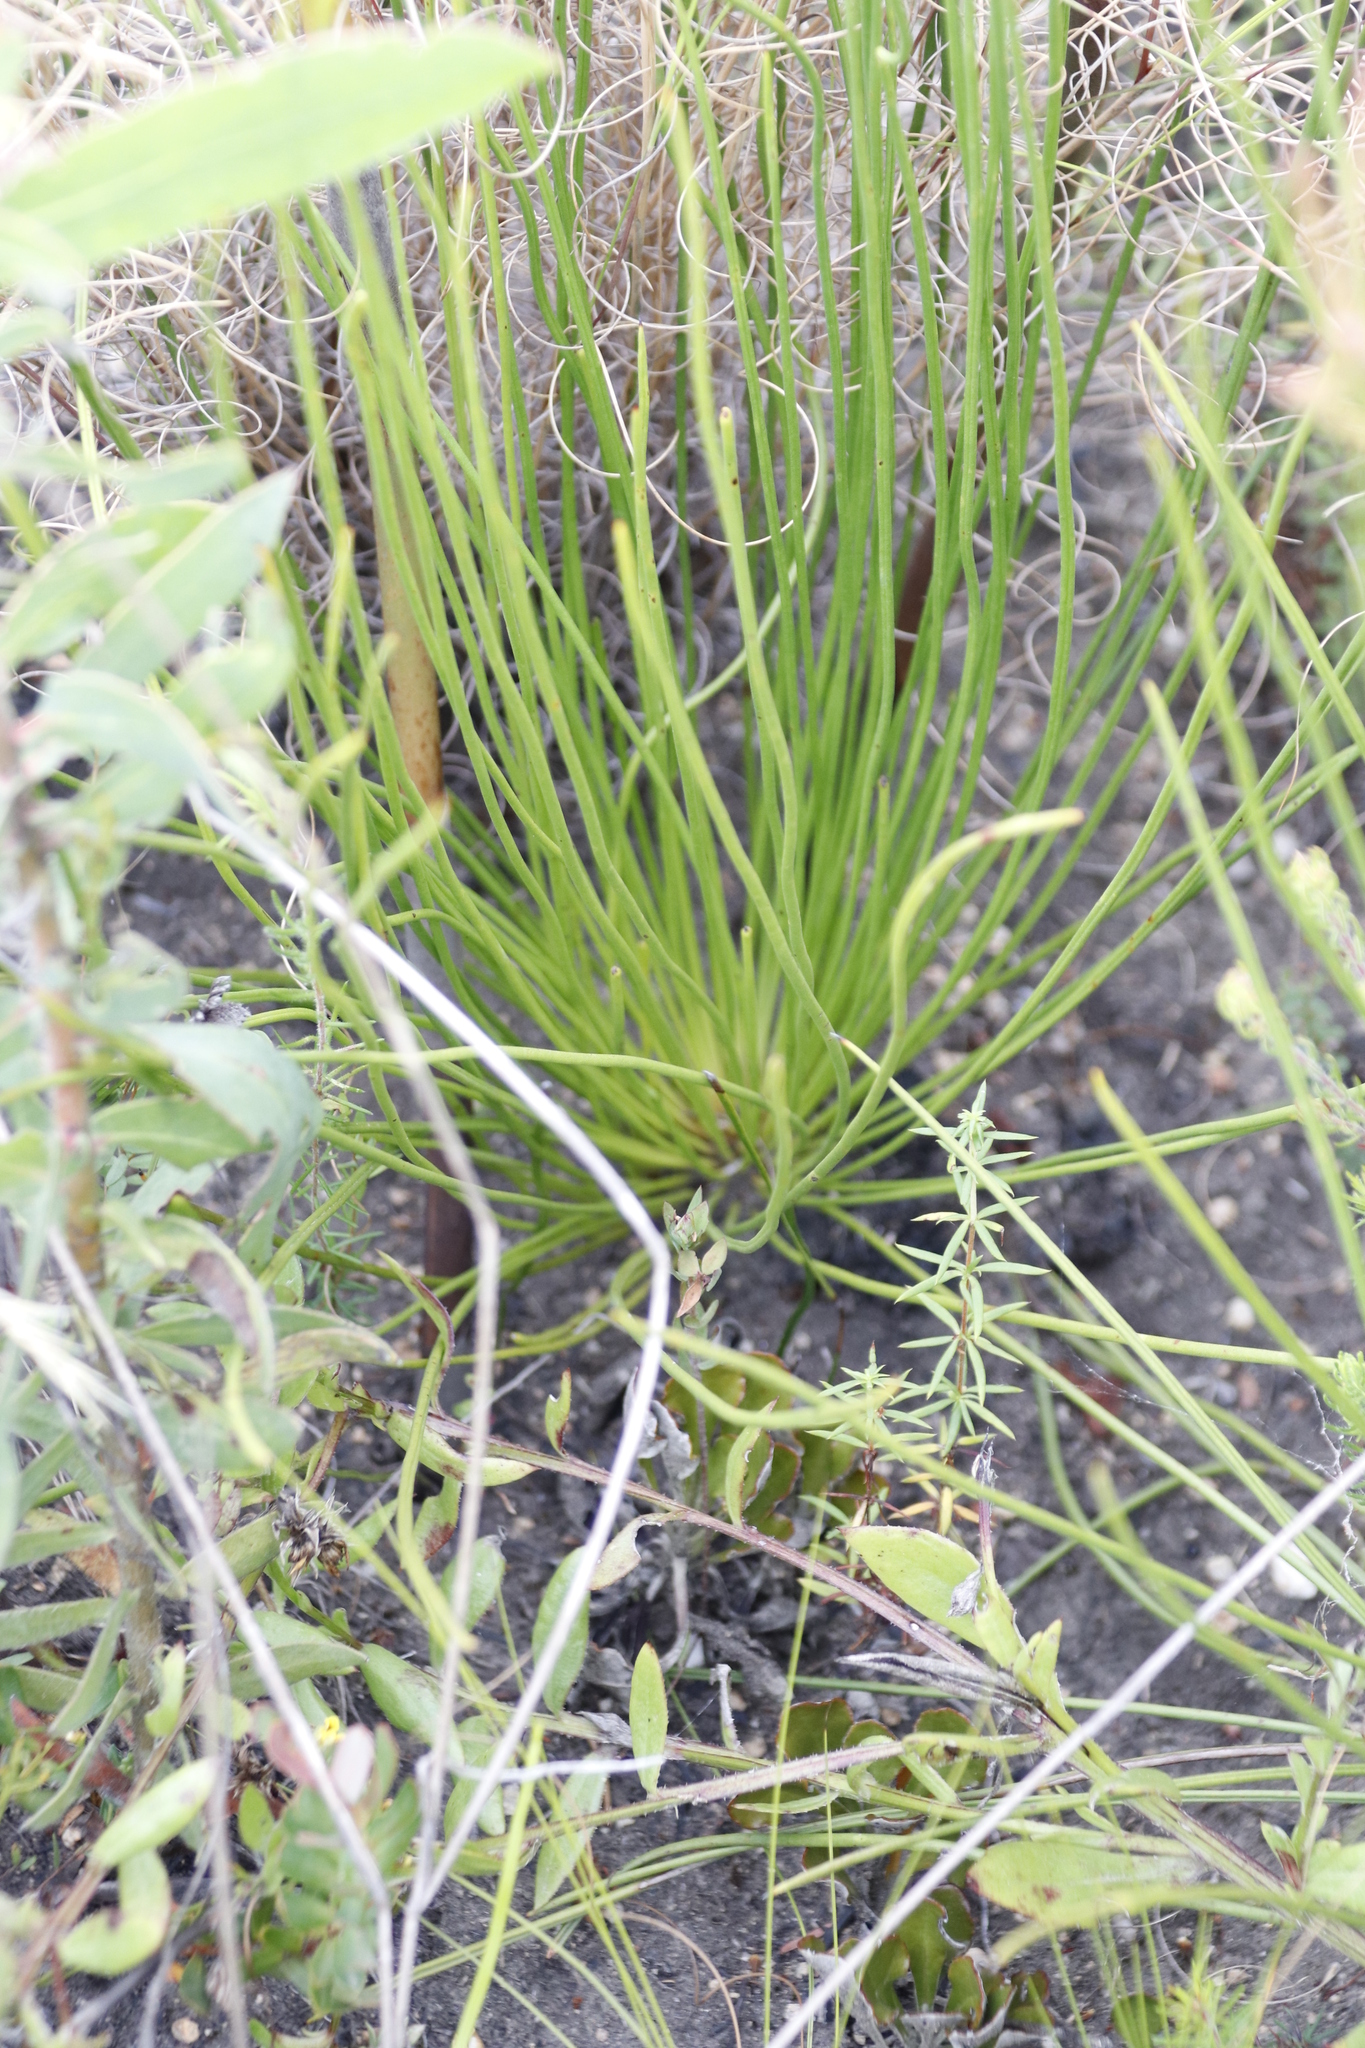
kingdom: Plantae
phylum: Tracheophyta
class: Polypodiopsida
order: Schizaeales
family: Schizaeaceae
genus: Schizaea
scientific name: Schizaea pectinata
